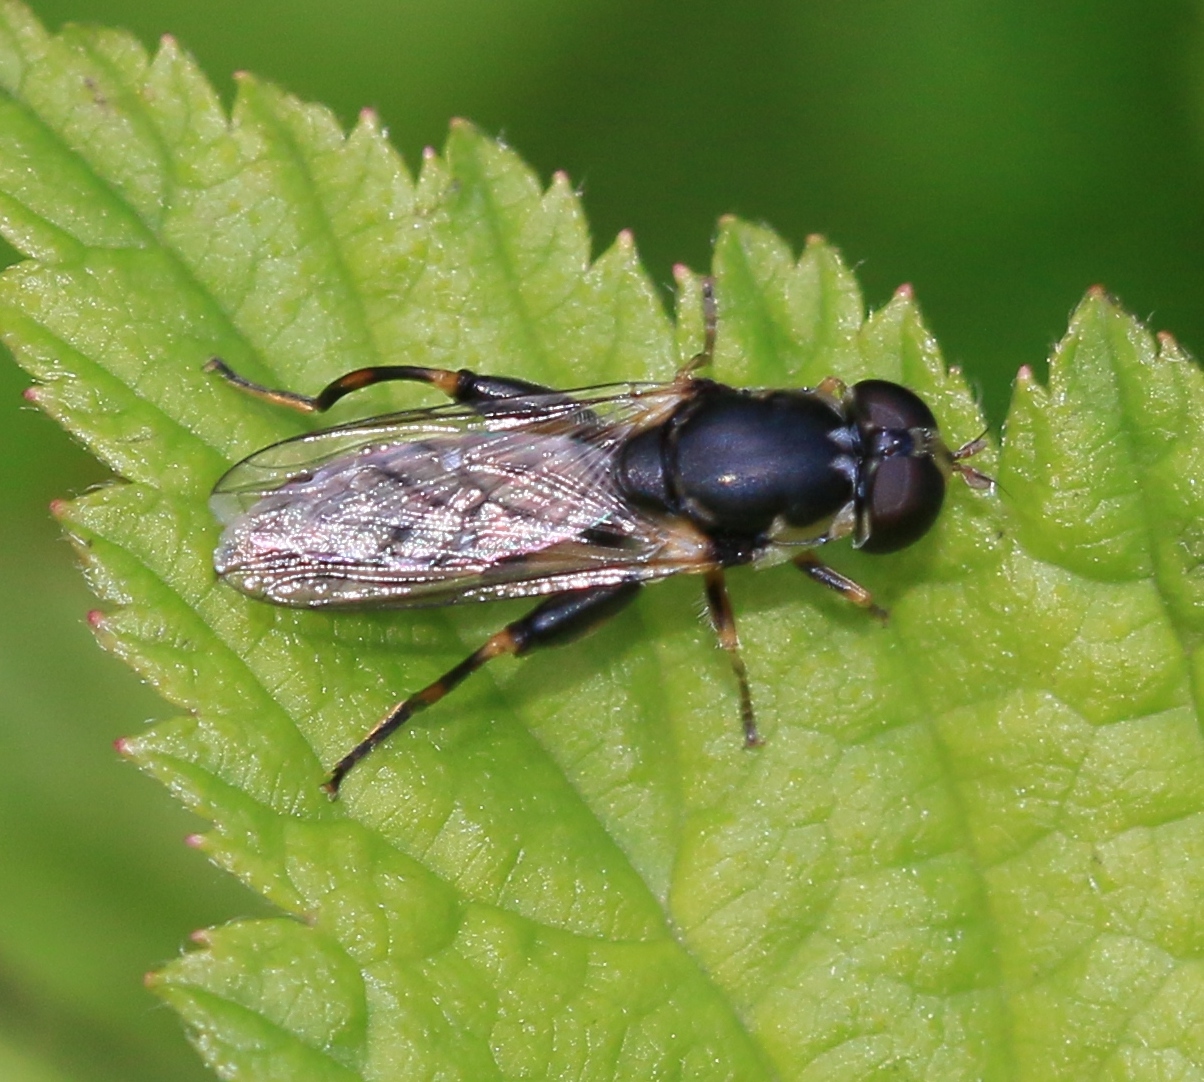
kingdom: Animalia
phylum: Arthropoda
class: Insecta
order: Diptera
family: Syrphidae
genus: Syritta
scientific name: Syritta pipiens
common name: Hover fly
